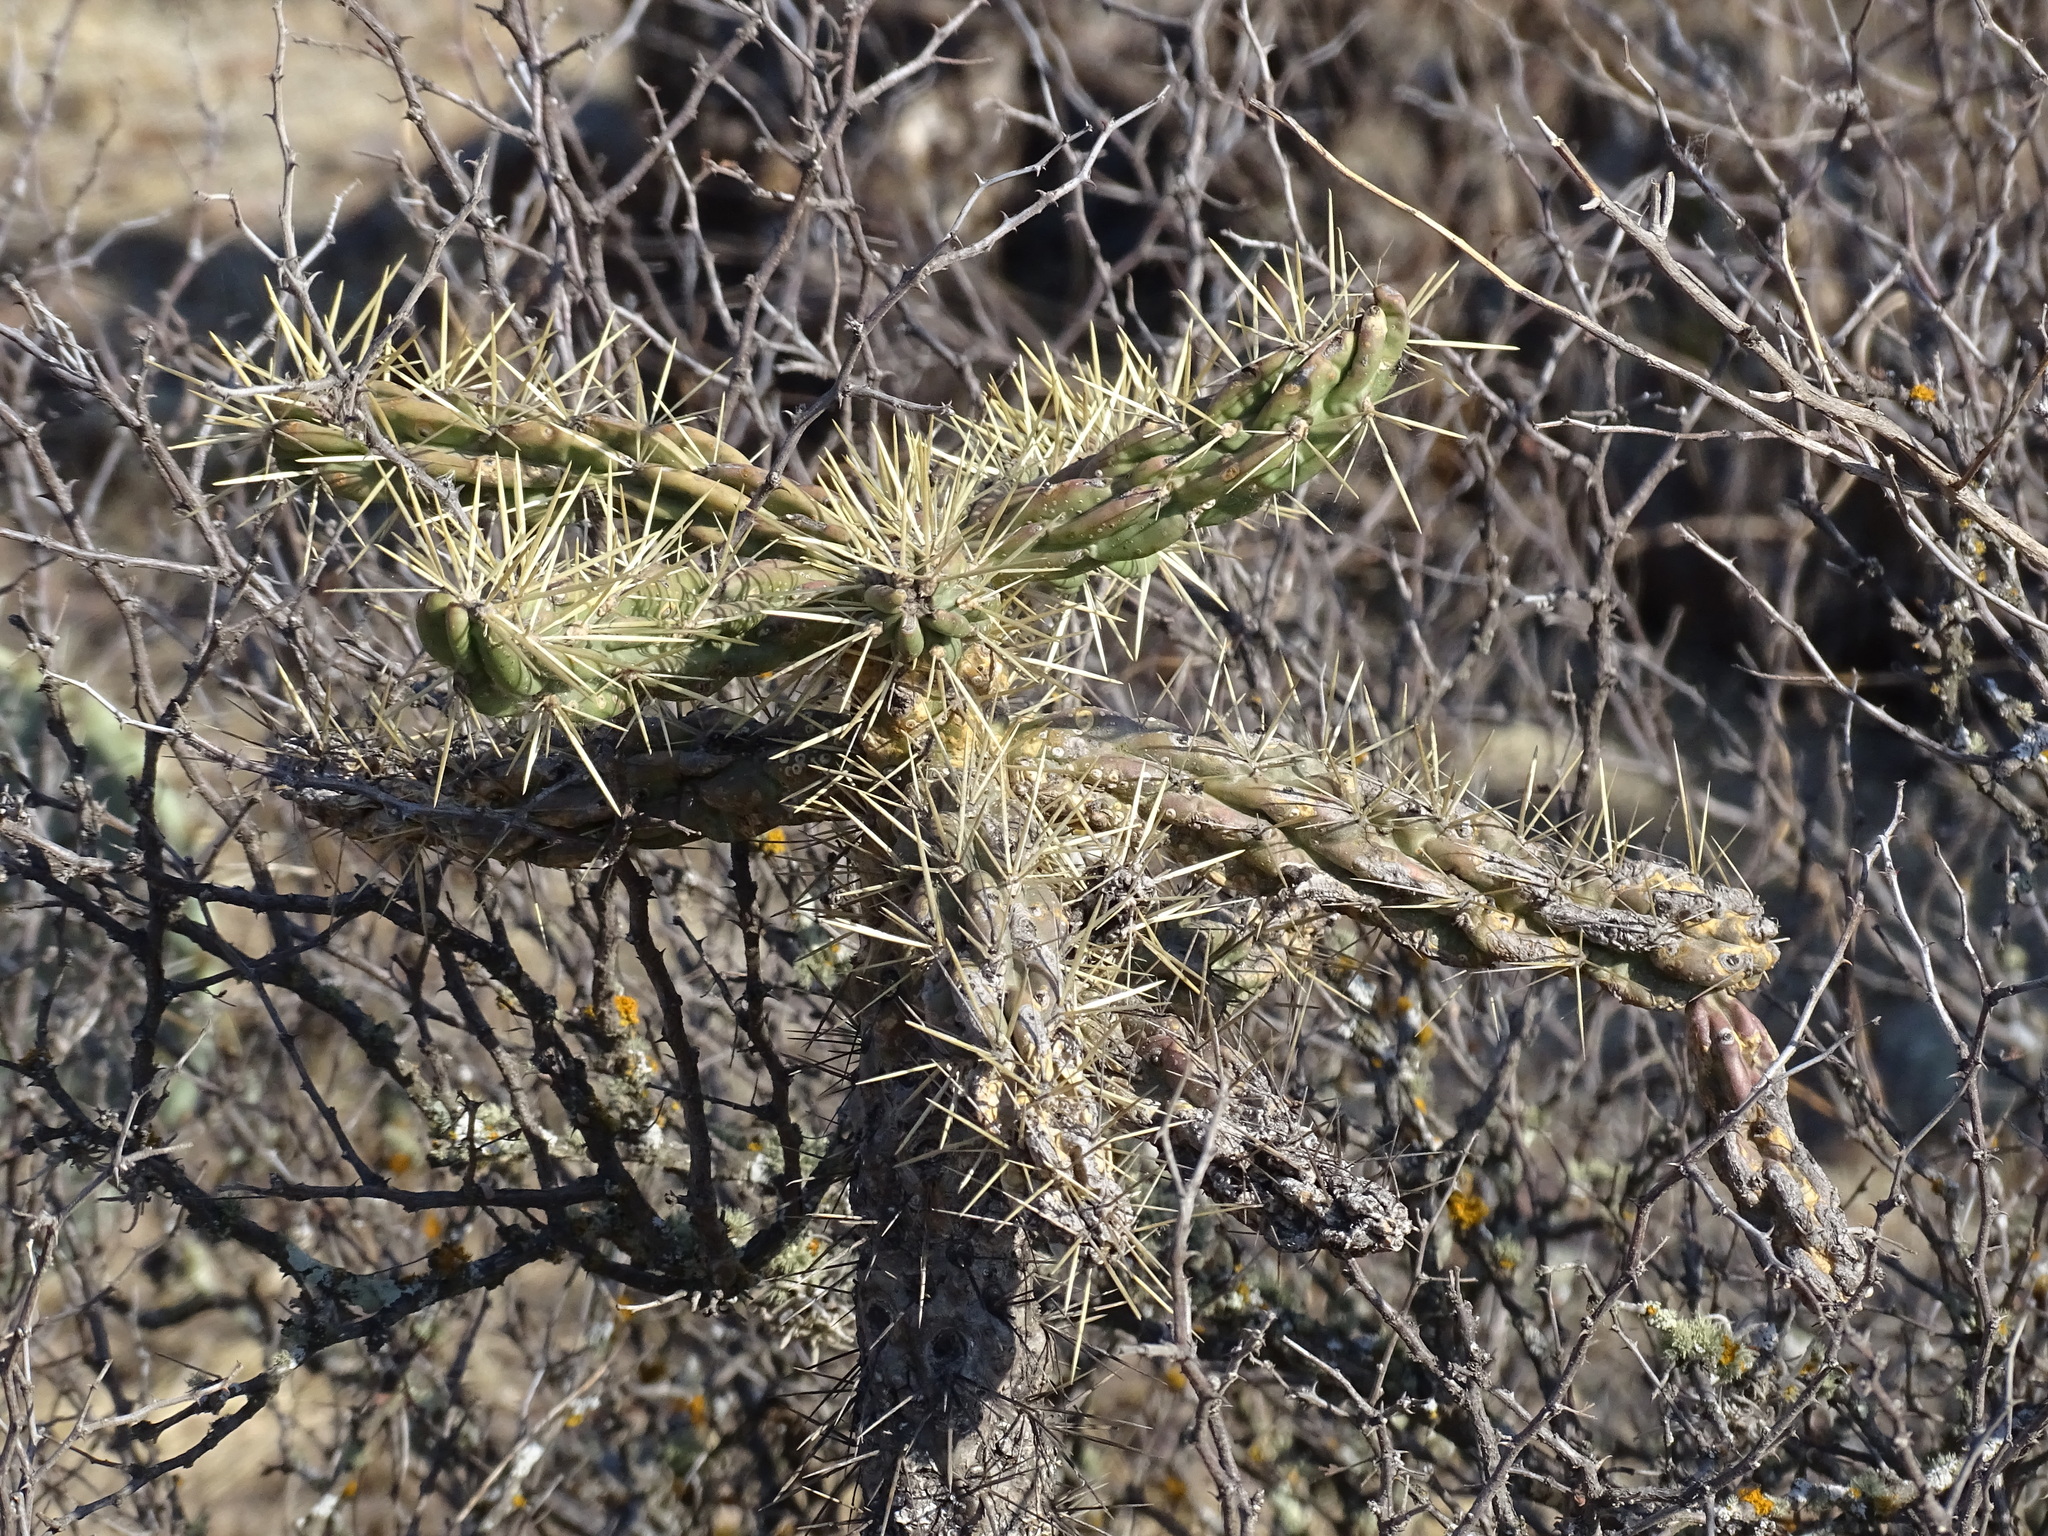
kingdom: Plantae
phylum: Tracheophyta
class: Magnoliopsida
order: Caryophyllales
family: Cactaceae
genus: Cylindropuntia
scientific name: Cylindropuntia imbricata
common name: Candelabrum cactus
